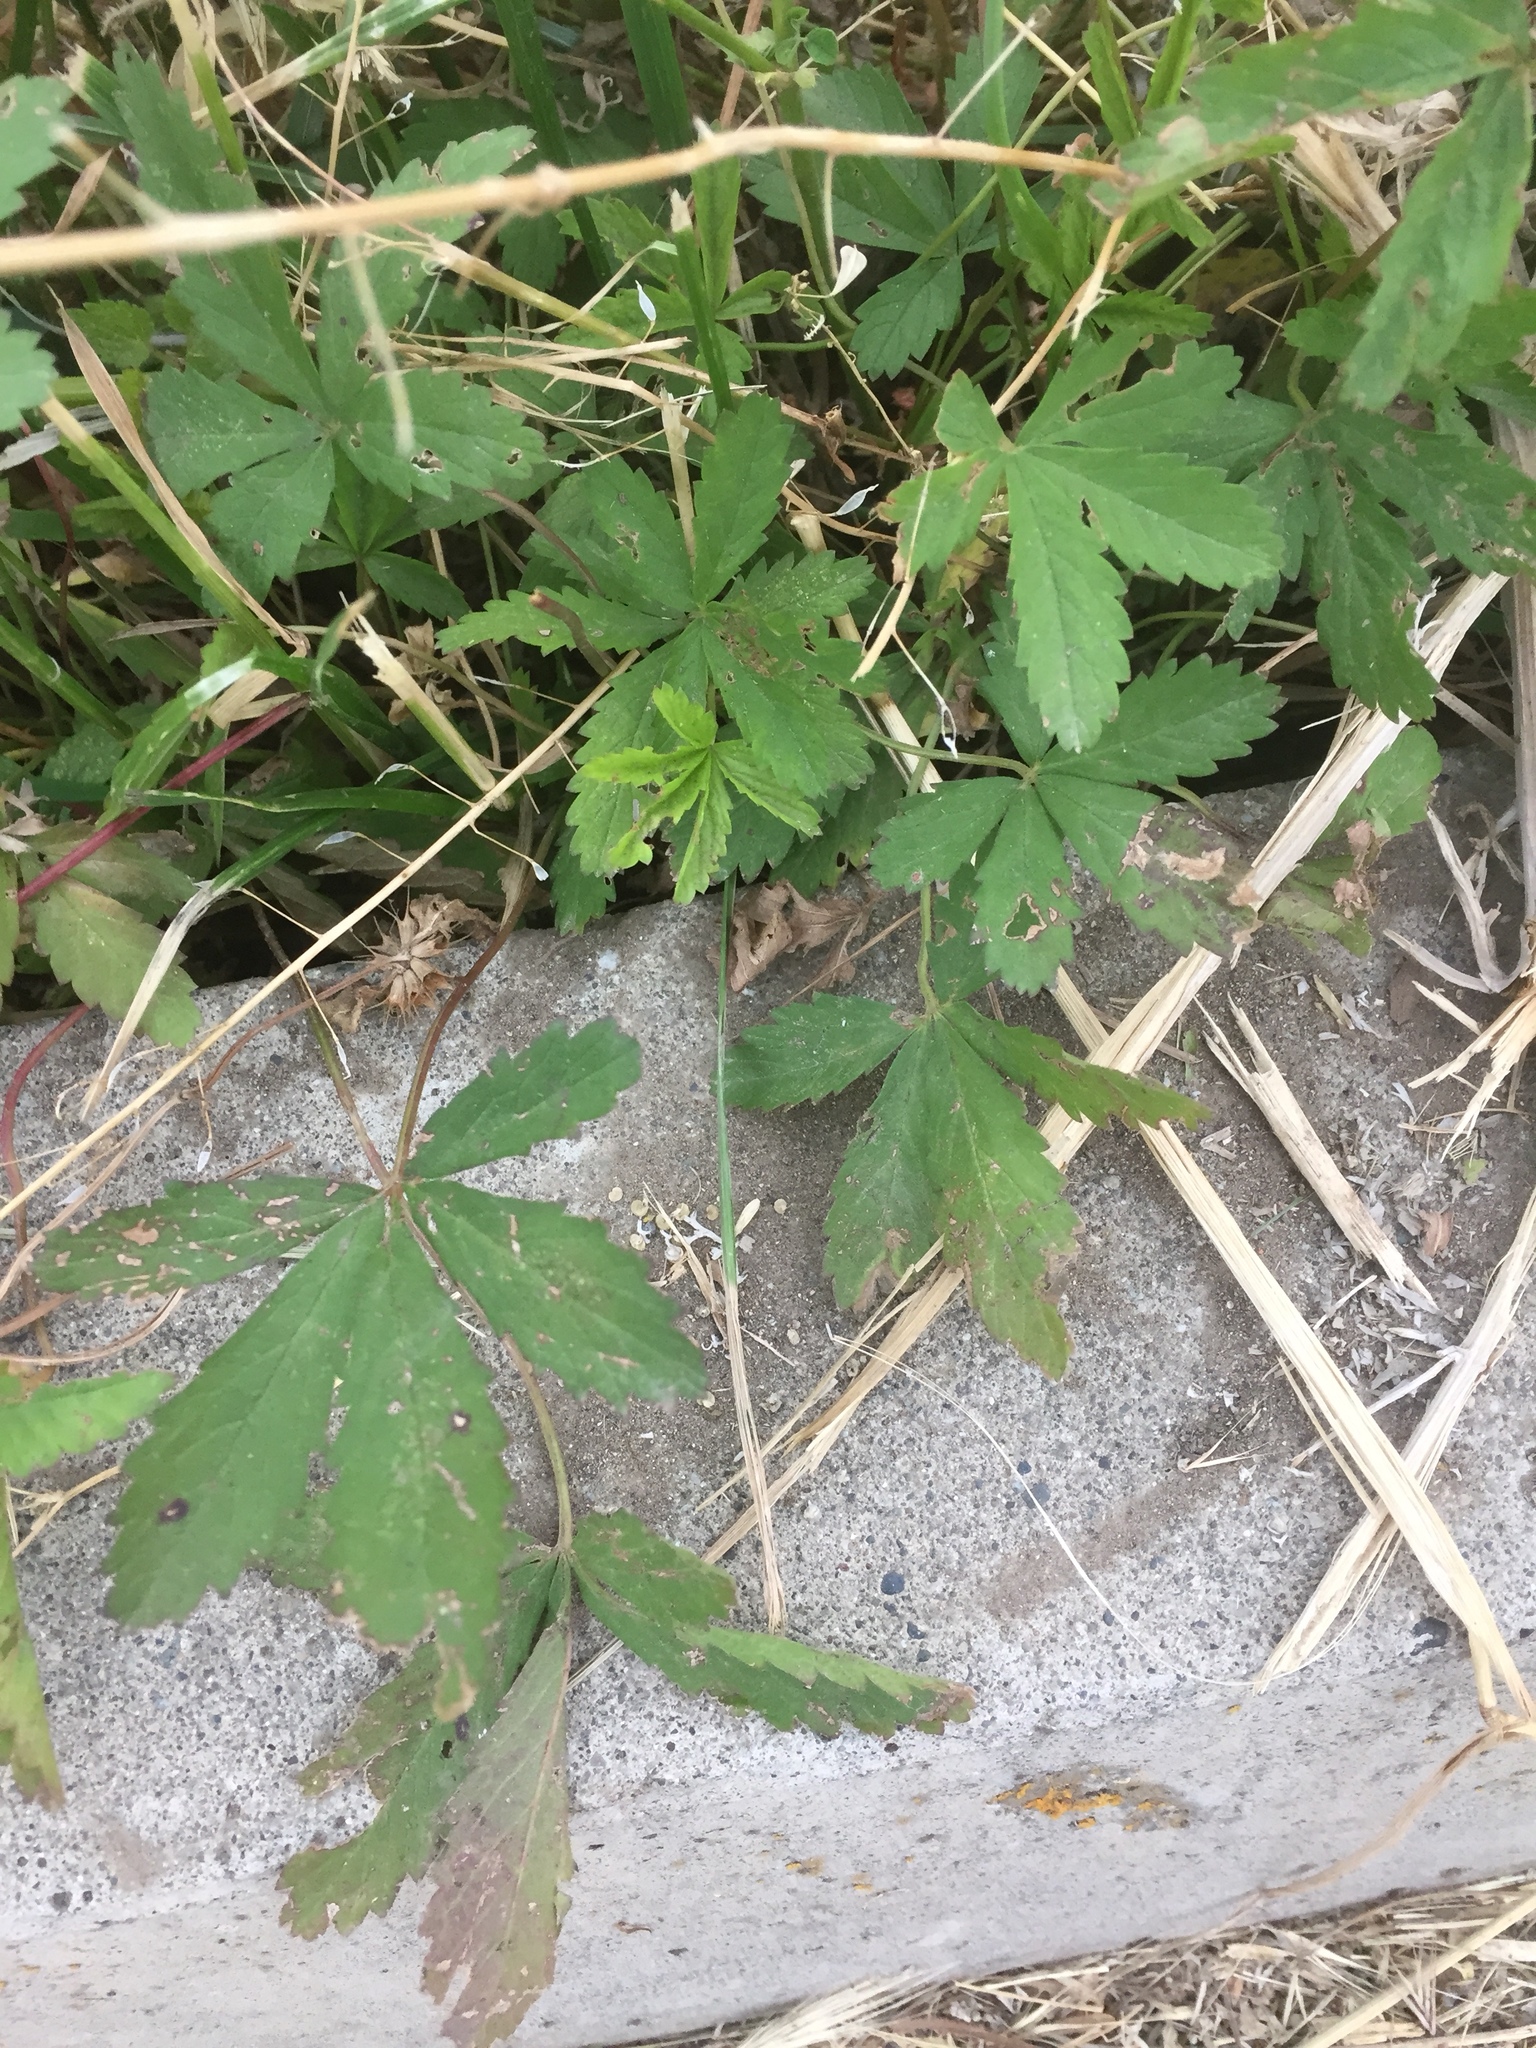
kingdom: Plantae
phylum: Tracheophyta
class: Magnoliopsida
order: Rosales
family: Rosaceae
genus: Potentilla
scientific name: Potentilla reptans
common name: Creeping cinquefoil
